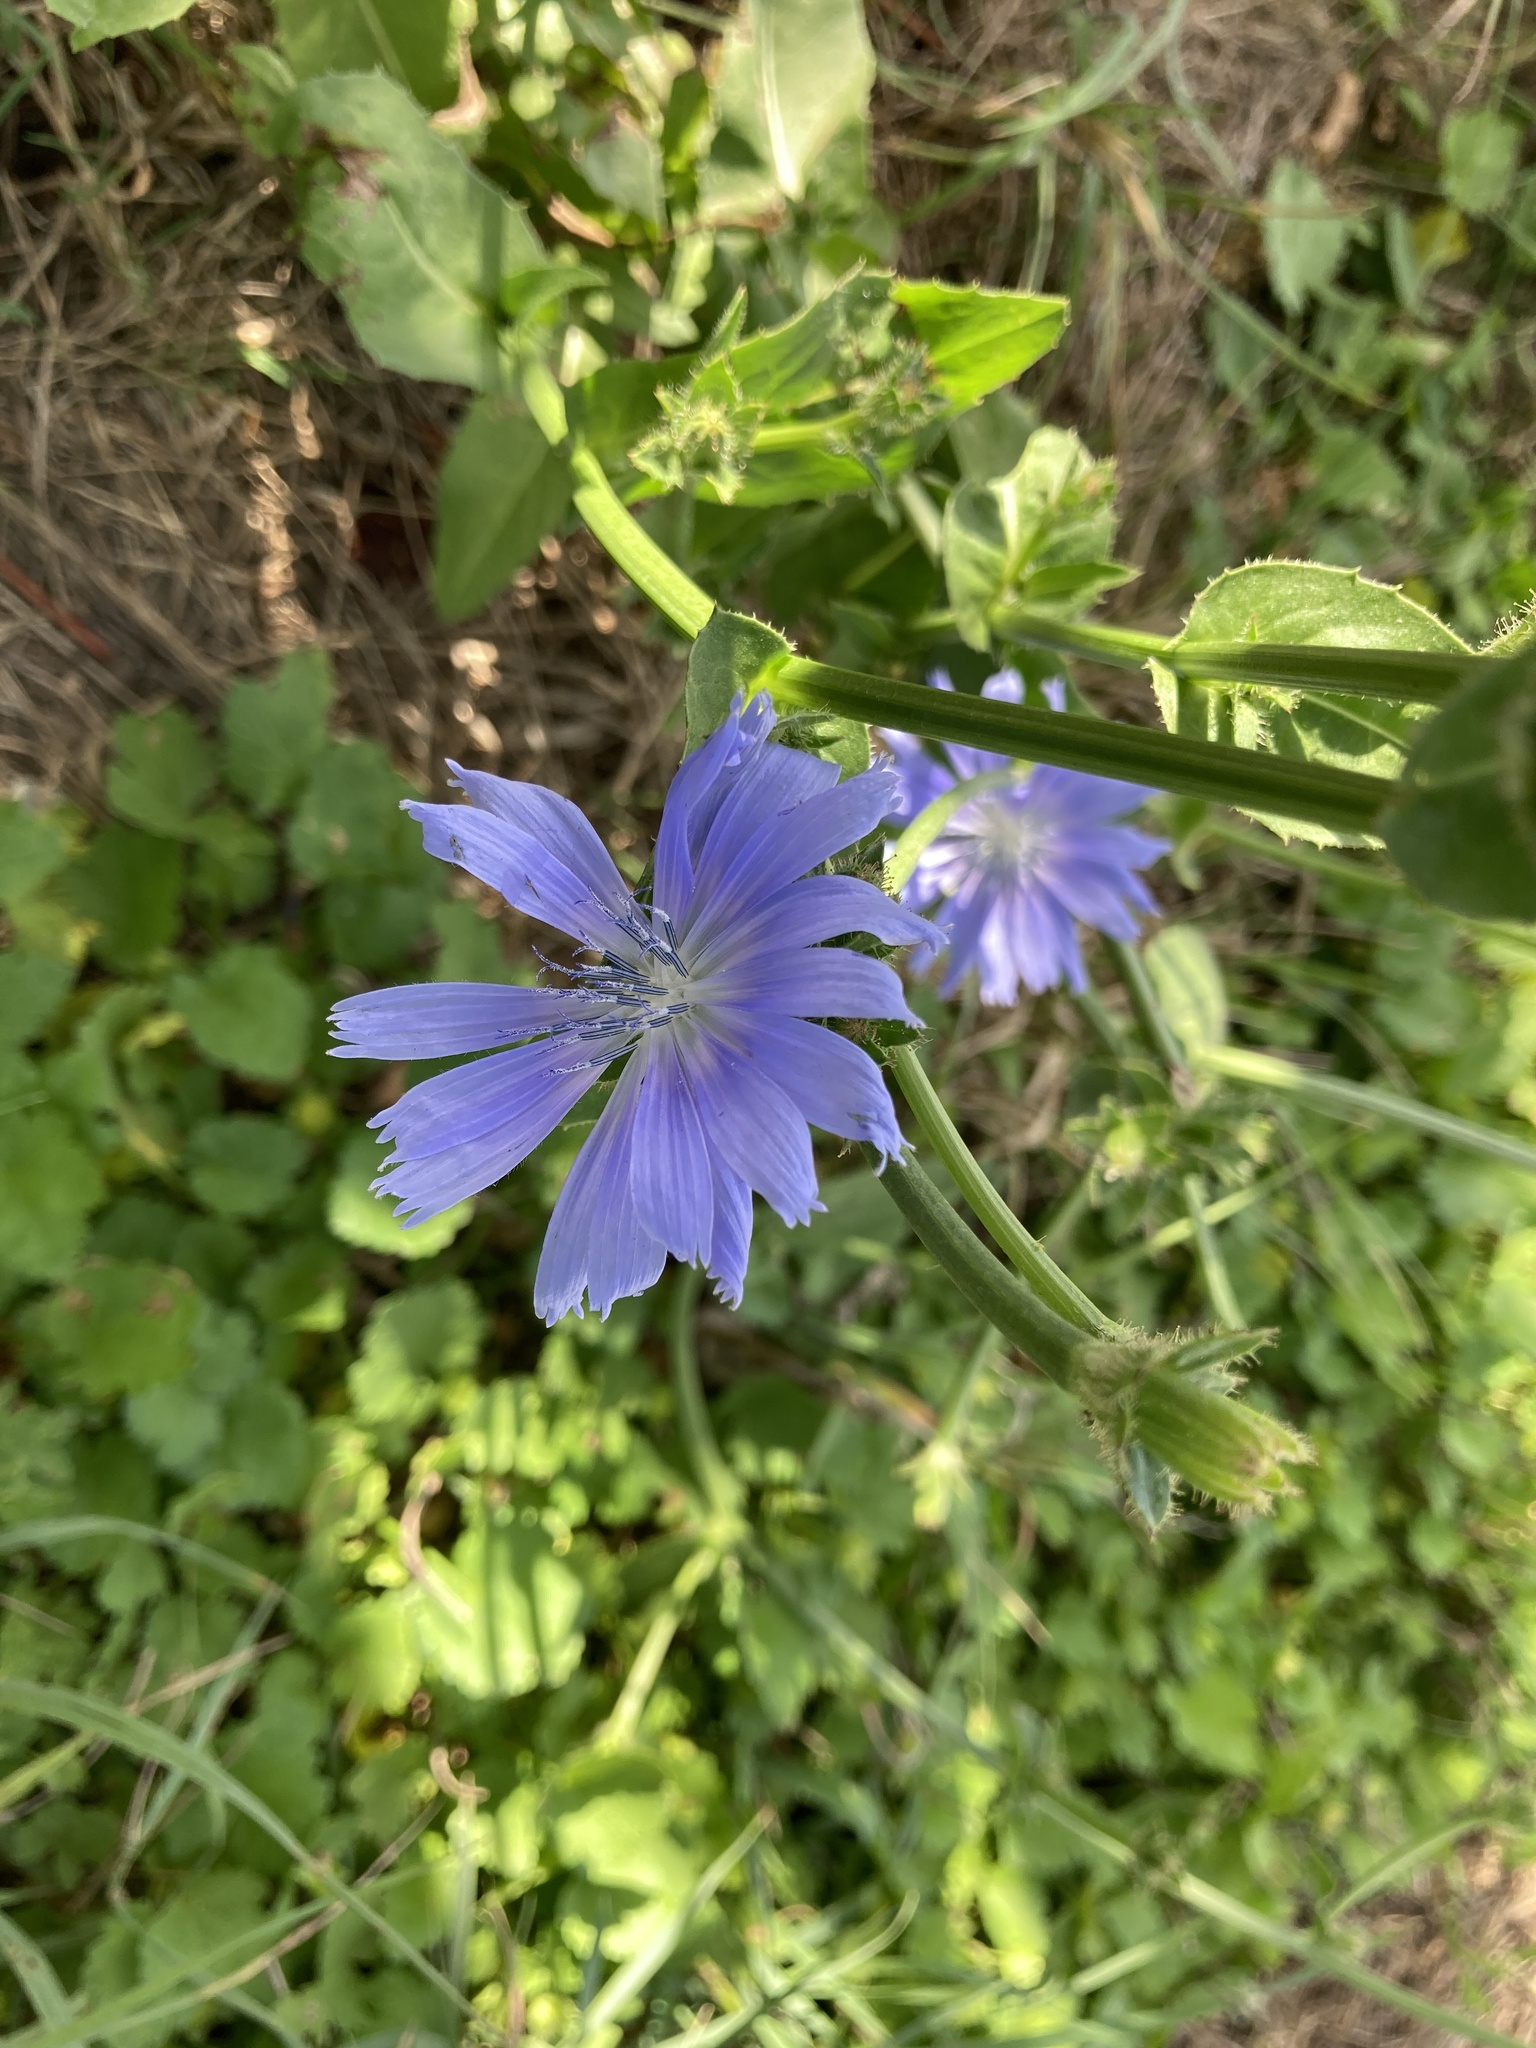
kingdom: Plantae
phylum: Tracheophyta
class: Magnoliopsida
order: Asterales
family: Asteraceae
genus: Cichorium
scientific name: Cichorium intybus
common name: Chicory
